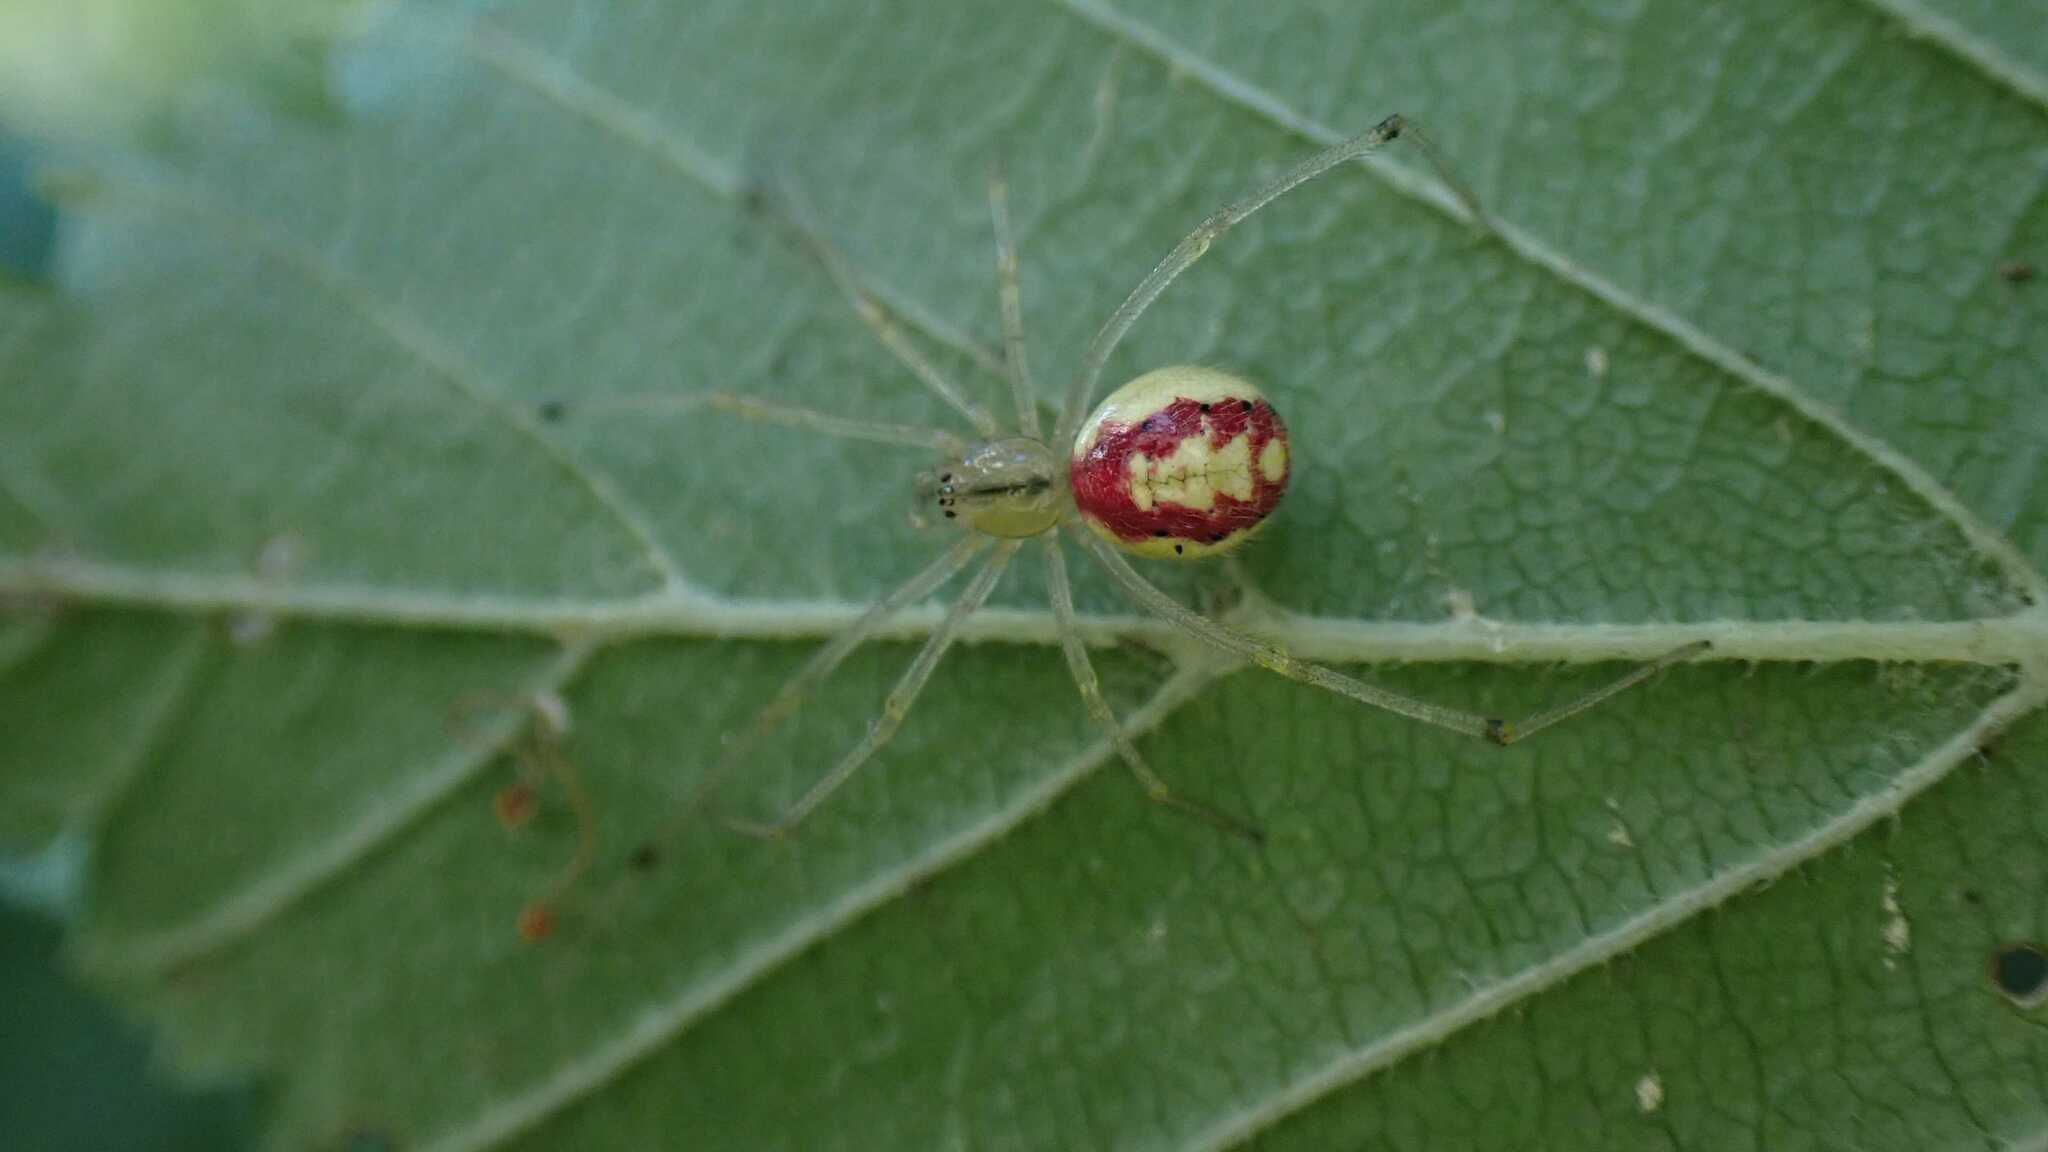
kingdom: Animalia
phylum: Arthropoda
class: Arachnida
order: Araneae
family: Theridiidae
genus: Enoplognatha
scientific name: Enoplognatha
